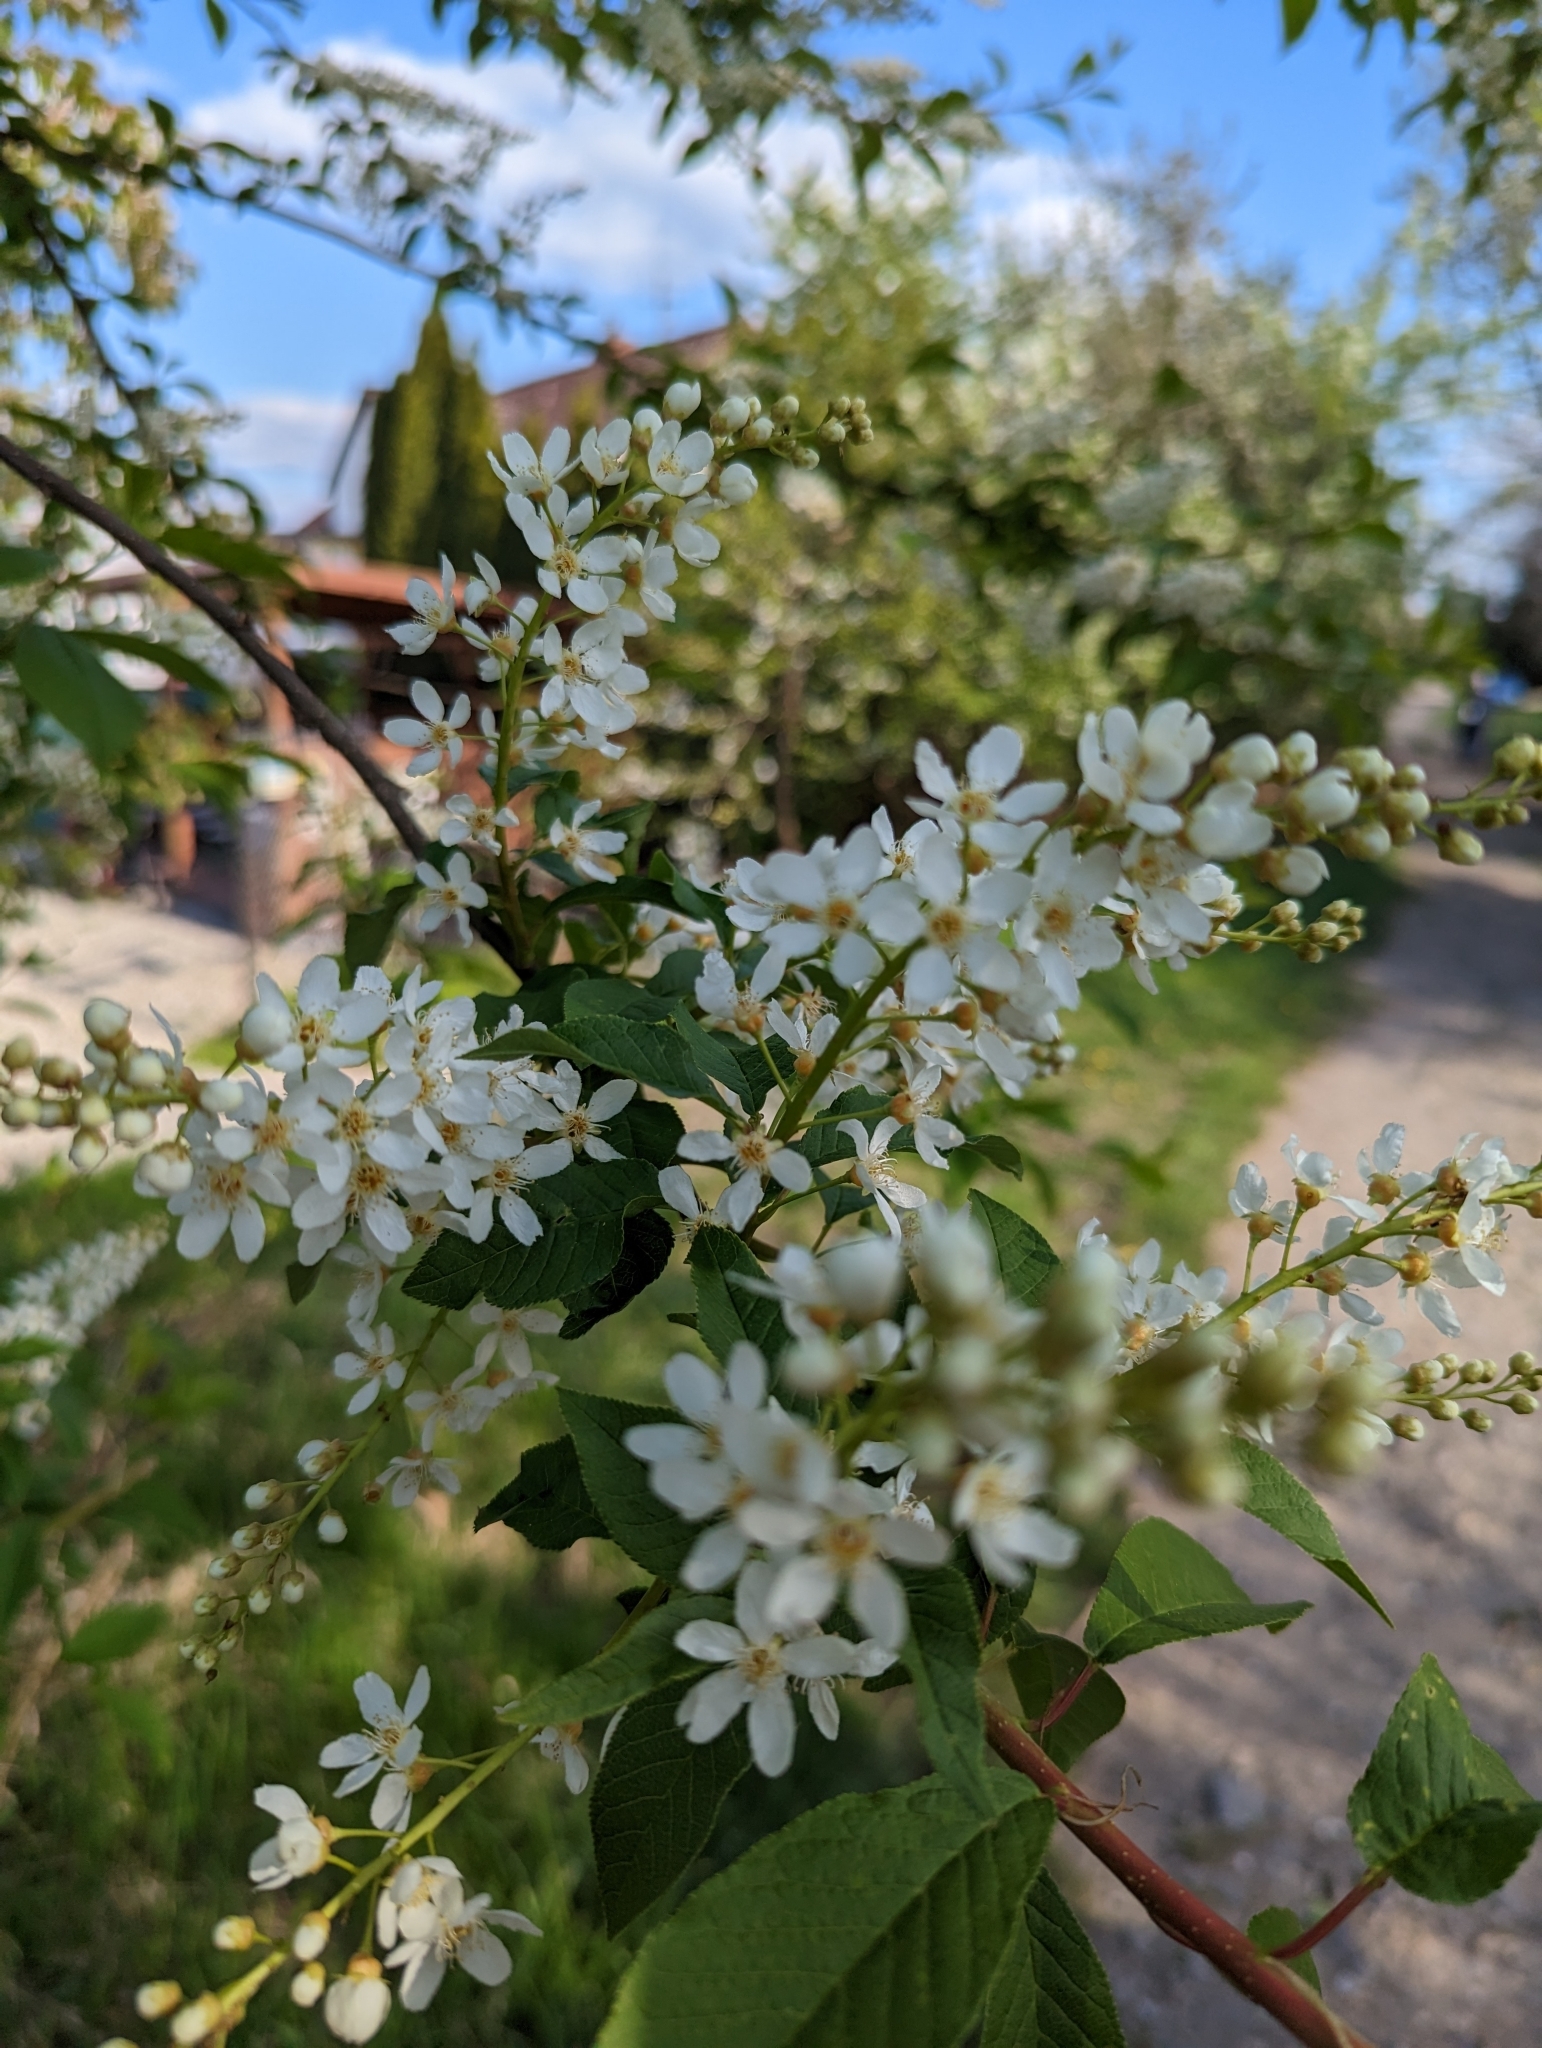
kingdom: Plantae
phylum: Tracheophyta
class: Magnoliopsida
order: Rosales
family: Rosaceae
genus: Prunus
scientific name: Prunus padus
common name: Bird cherry
